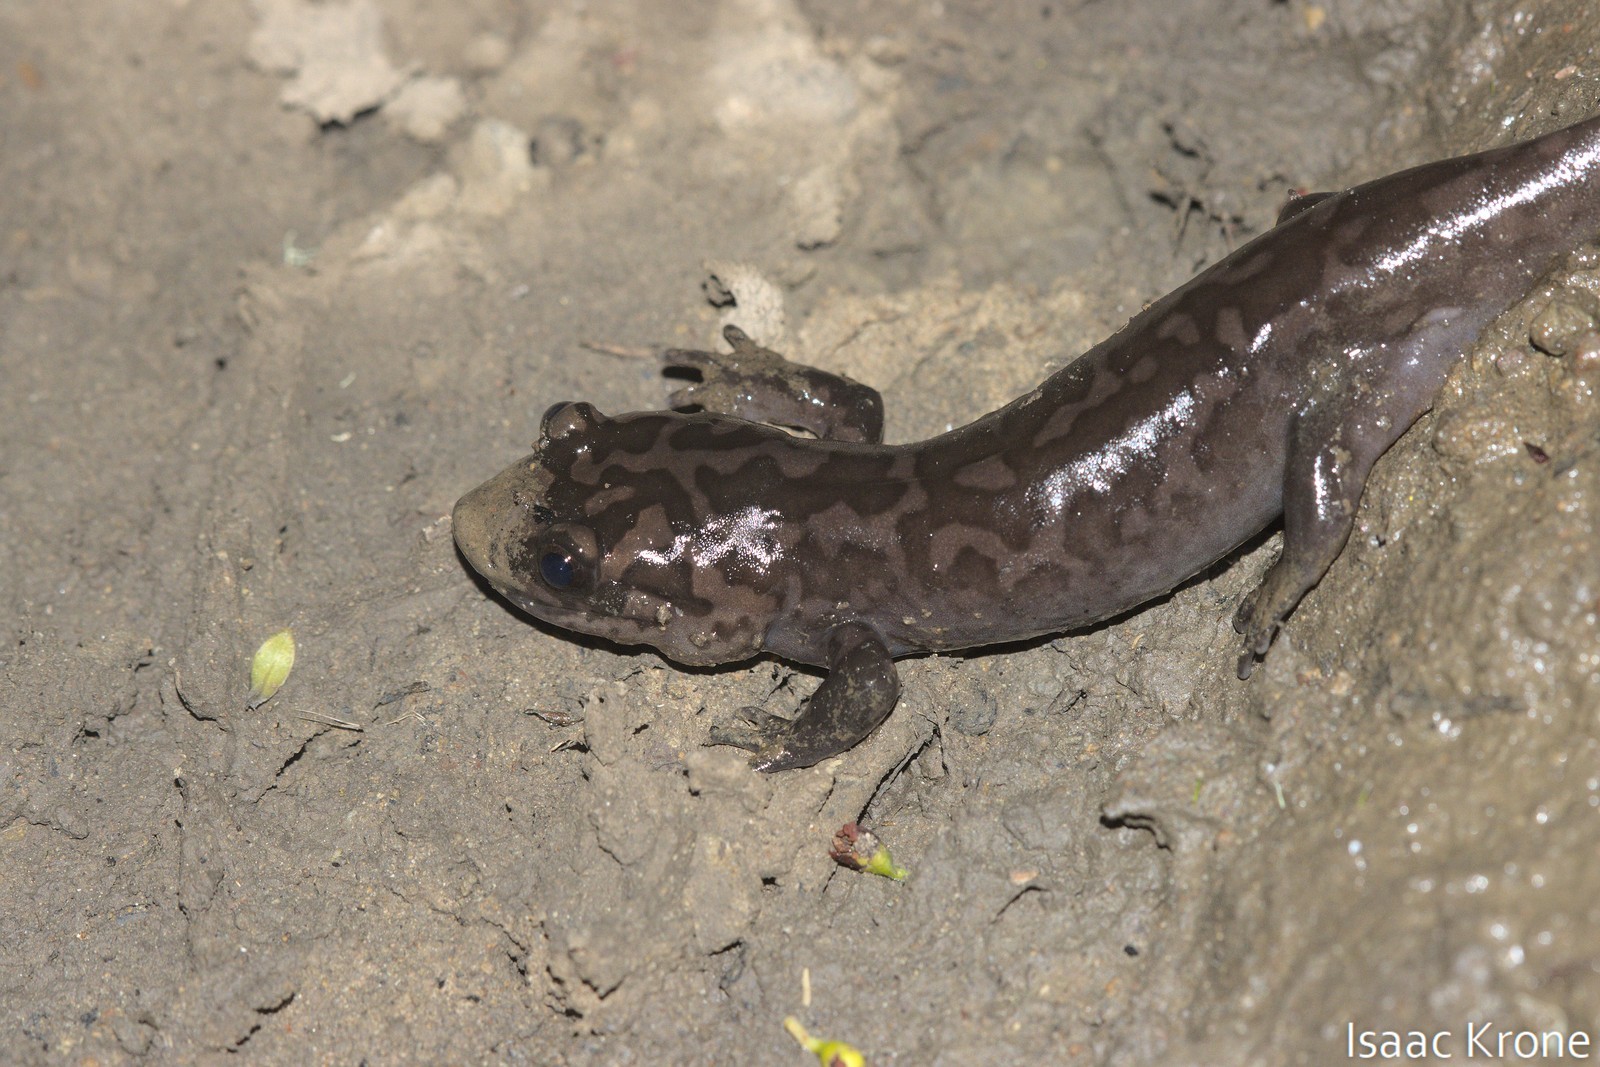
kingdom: Animalia
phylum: Chordata
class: Amphibia
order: Caudata
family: Ambystomatidae
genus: Dicamptodon
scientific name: Dicamptodon ensatus
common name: California giant salamander
